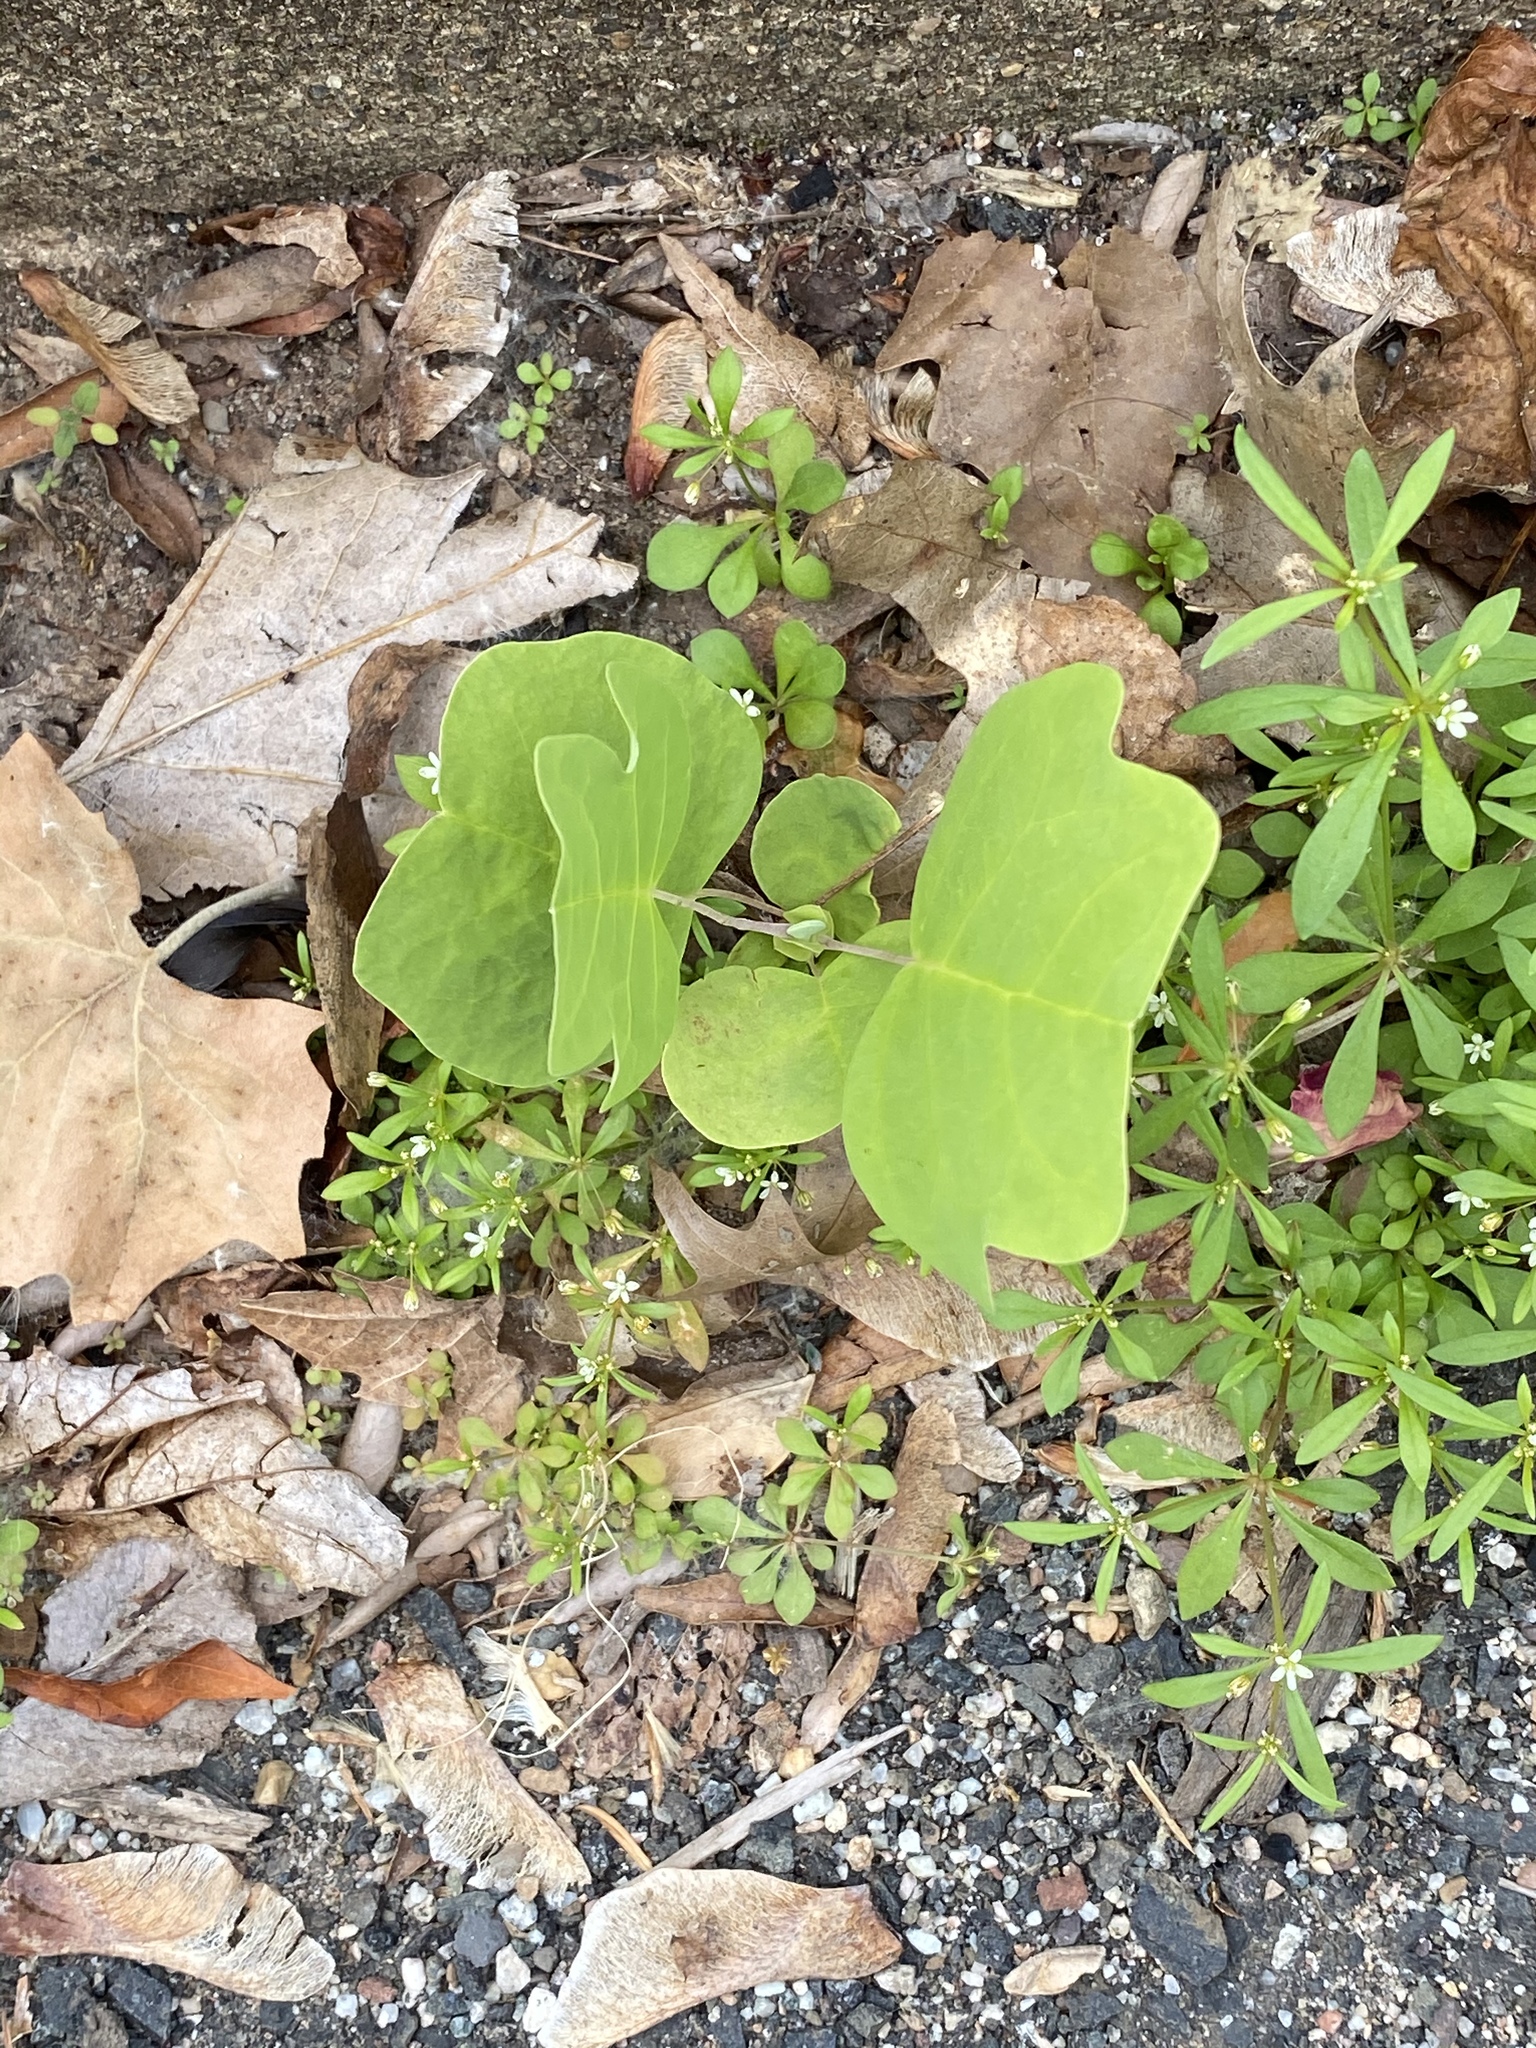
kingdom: Plantae
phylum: Tracheophyta
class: Magnoliopsida
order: Magnoliales
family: Magnoliaceae
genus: Liriodendron
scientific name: Liriodendron tulipifera
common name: Tulip tree
